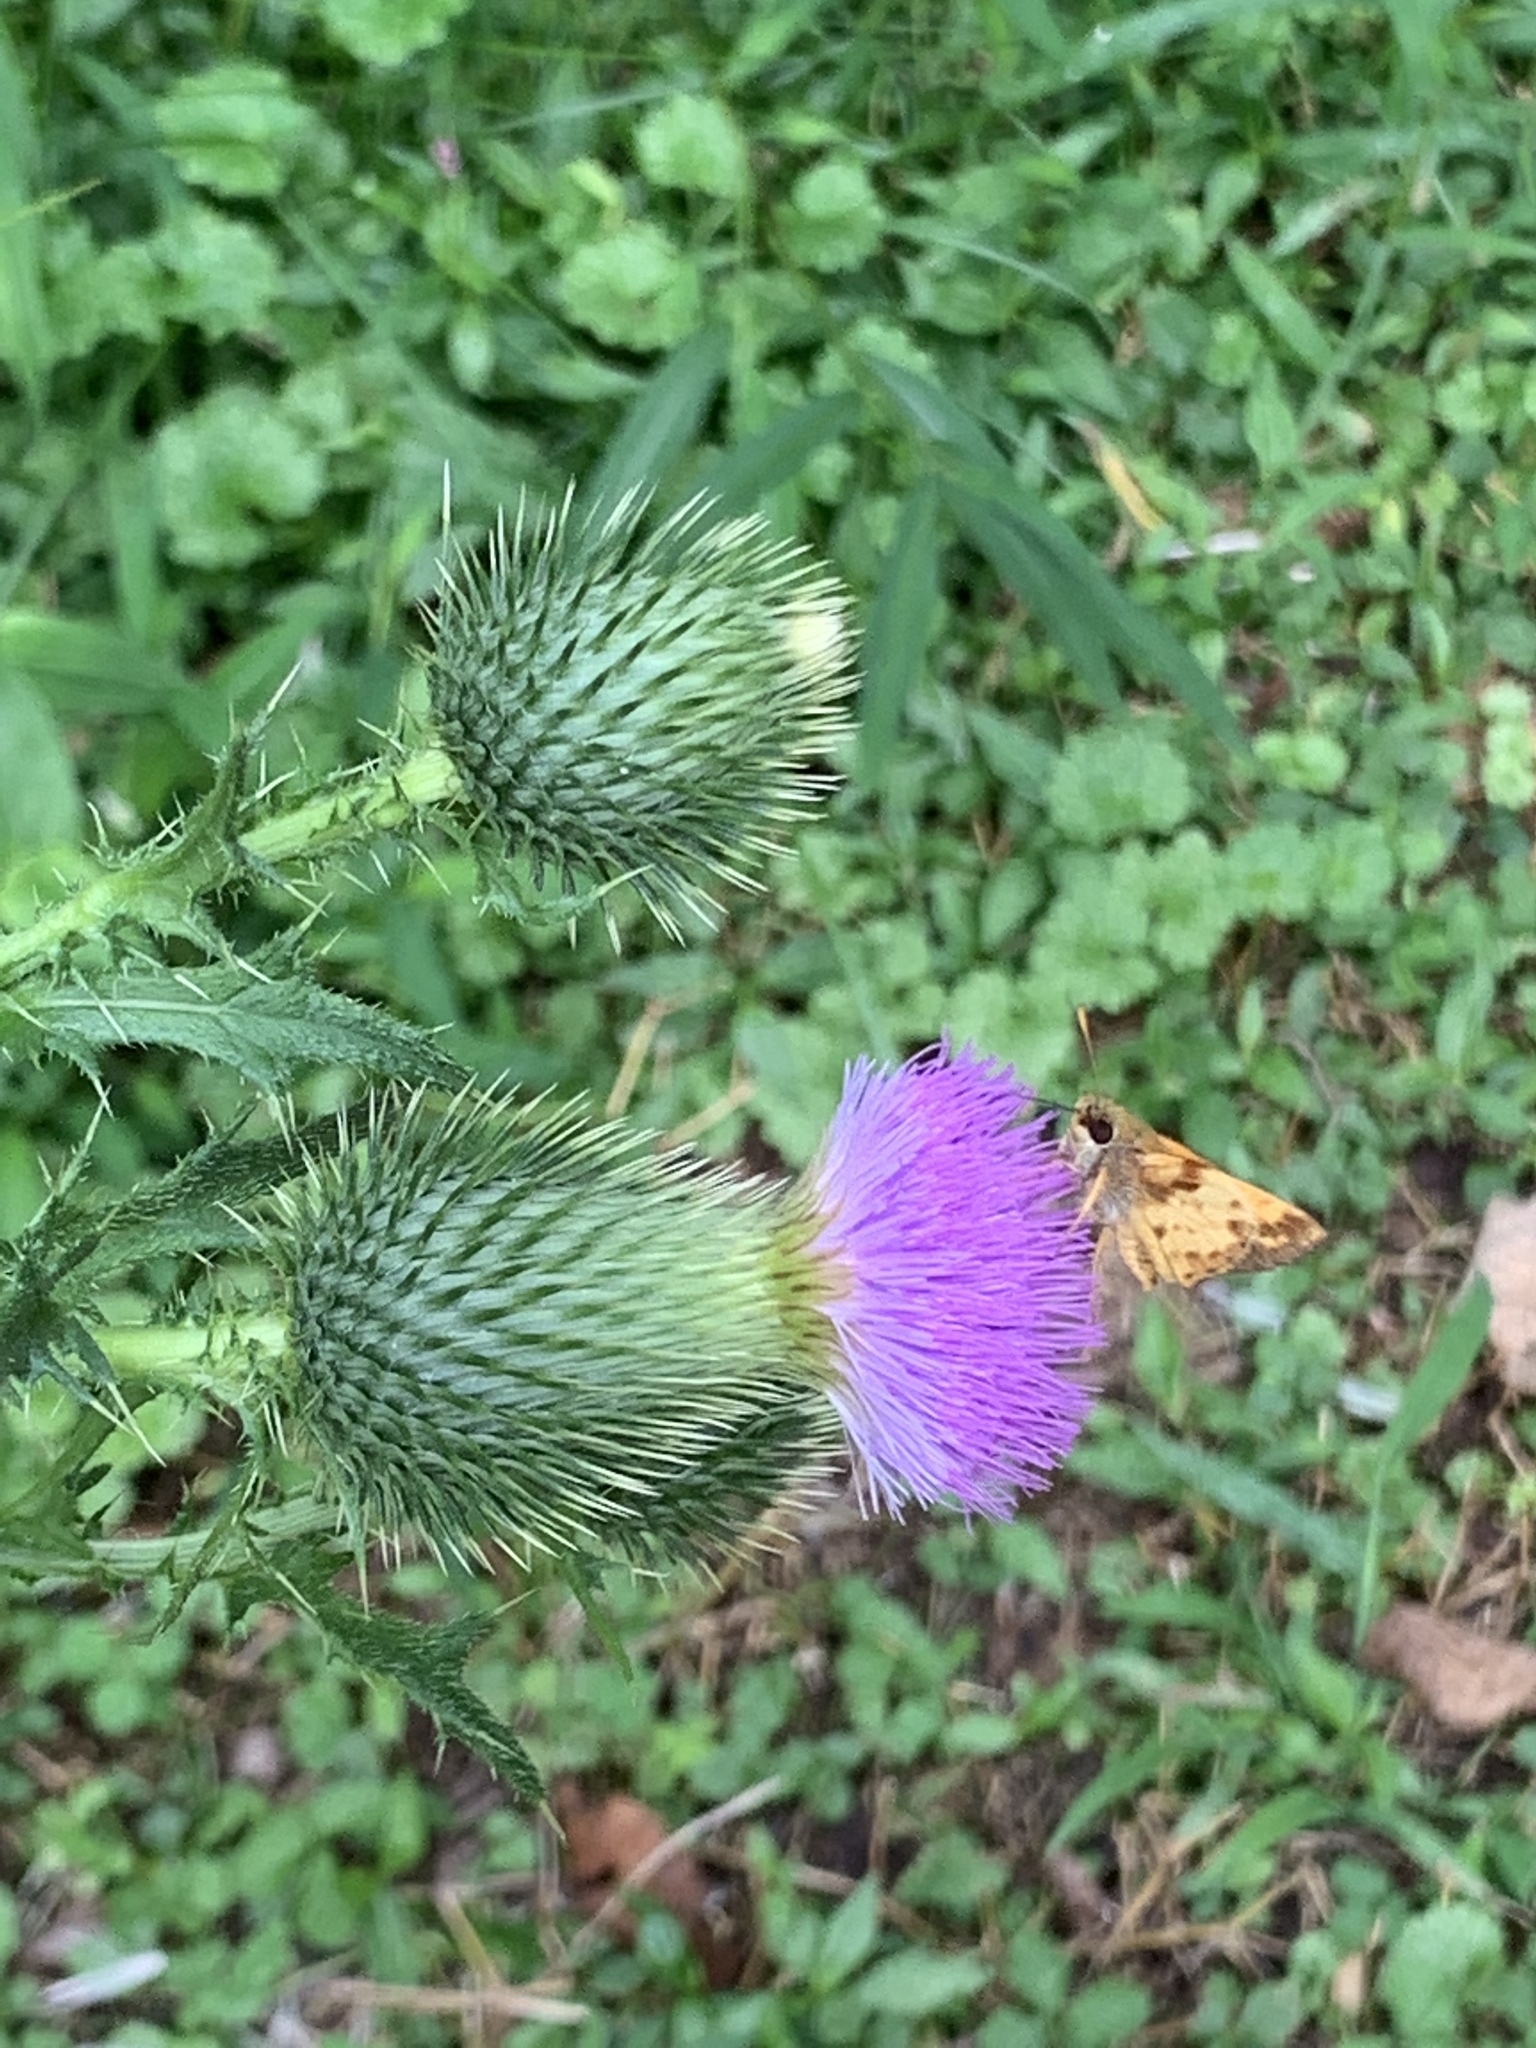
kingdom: Plantae
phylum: Tracheophyta
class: Magnoliopsida
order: Asterales
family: Asteraceae
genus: Cirsium
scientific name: Cirsium vulgare
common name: Bull thistle
